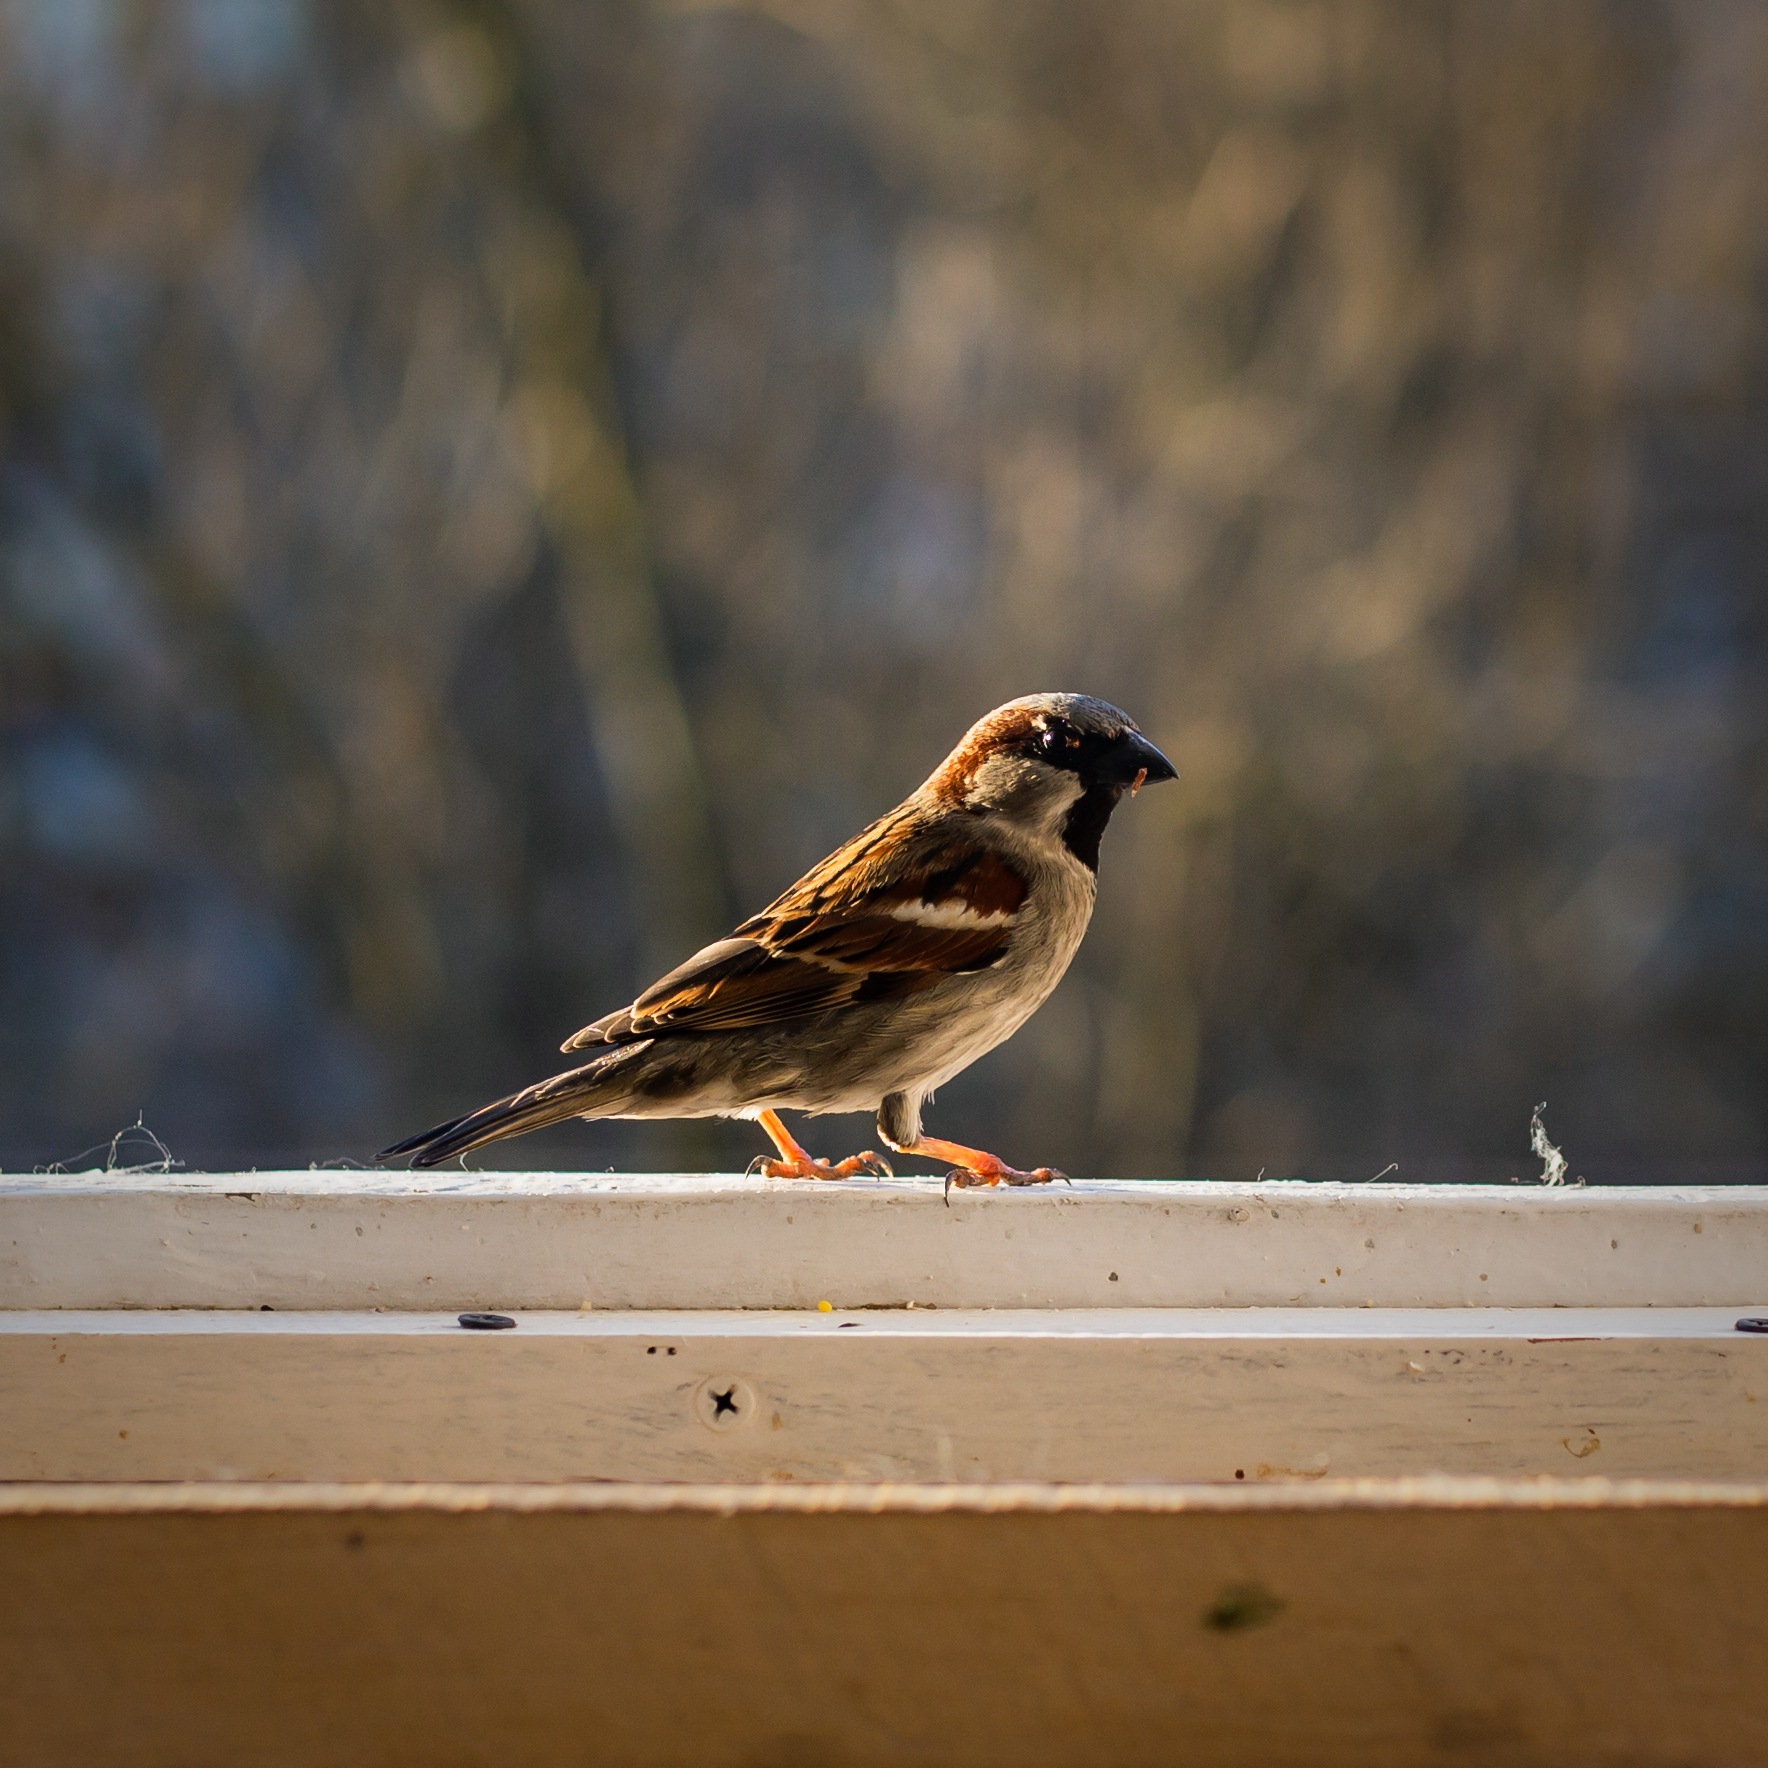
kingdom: Animalia
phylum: Chordata
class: Aves
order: Passeriformes
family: Passeridae
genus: Passer
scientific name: Passer domesticus
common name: House sparrow
